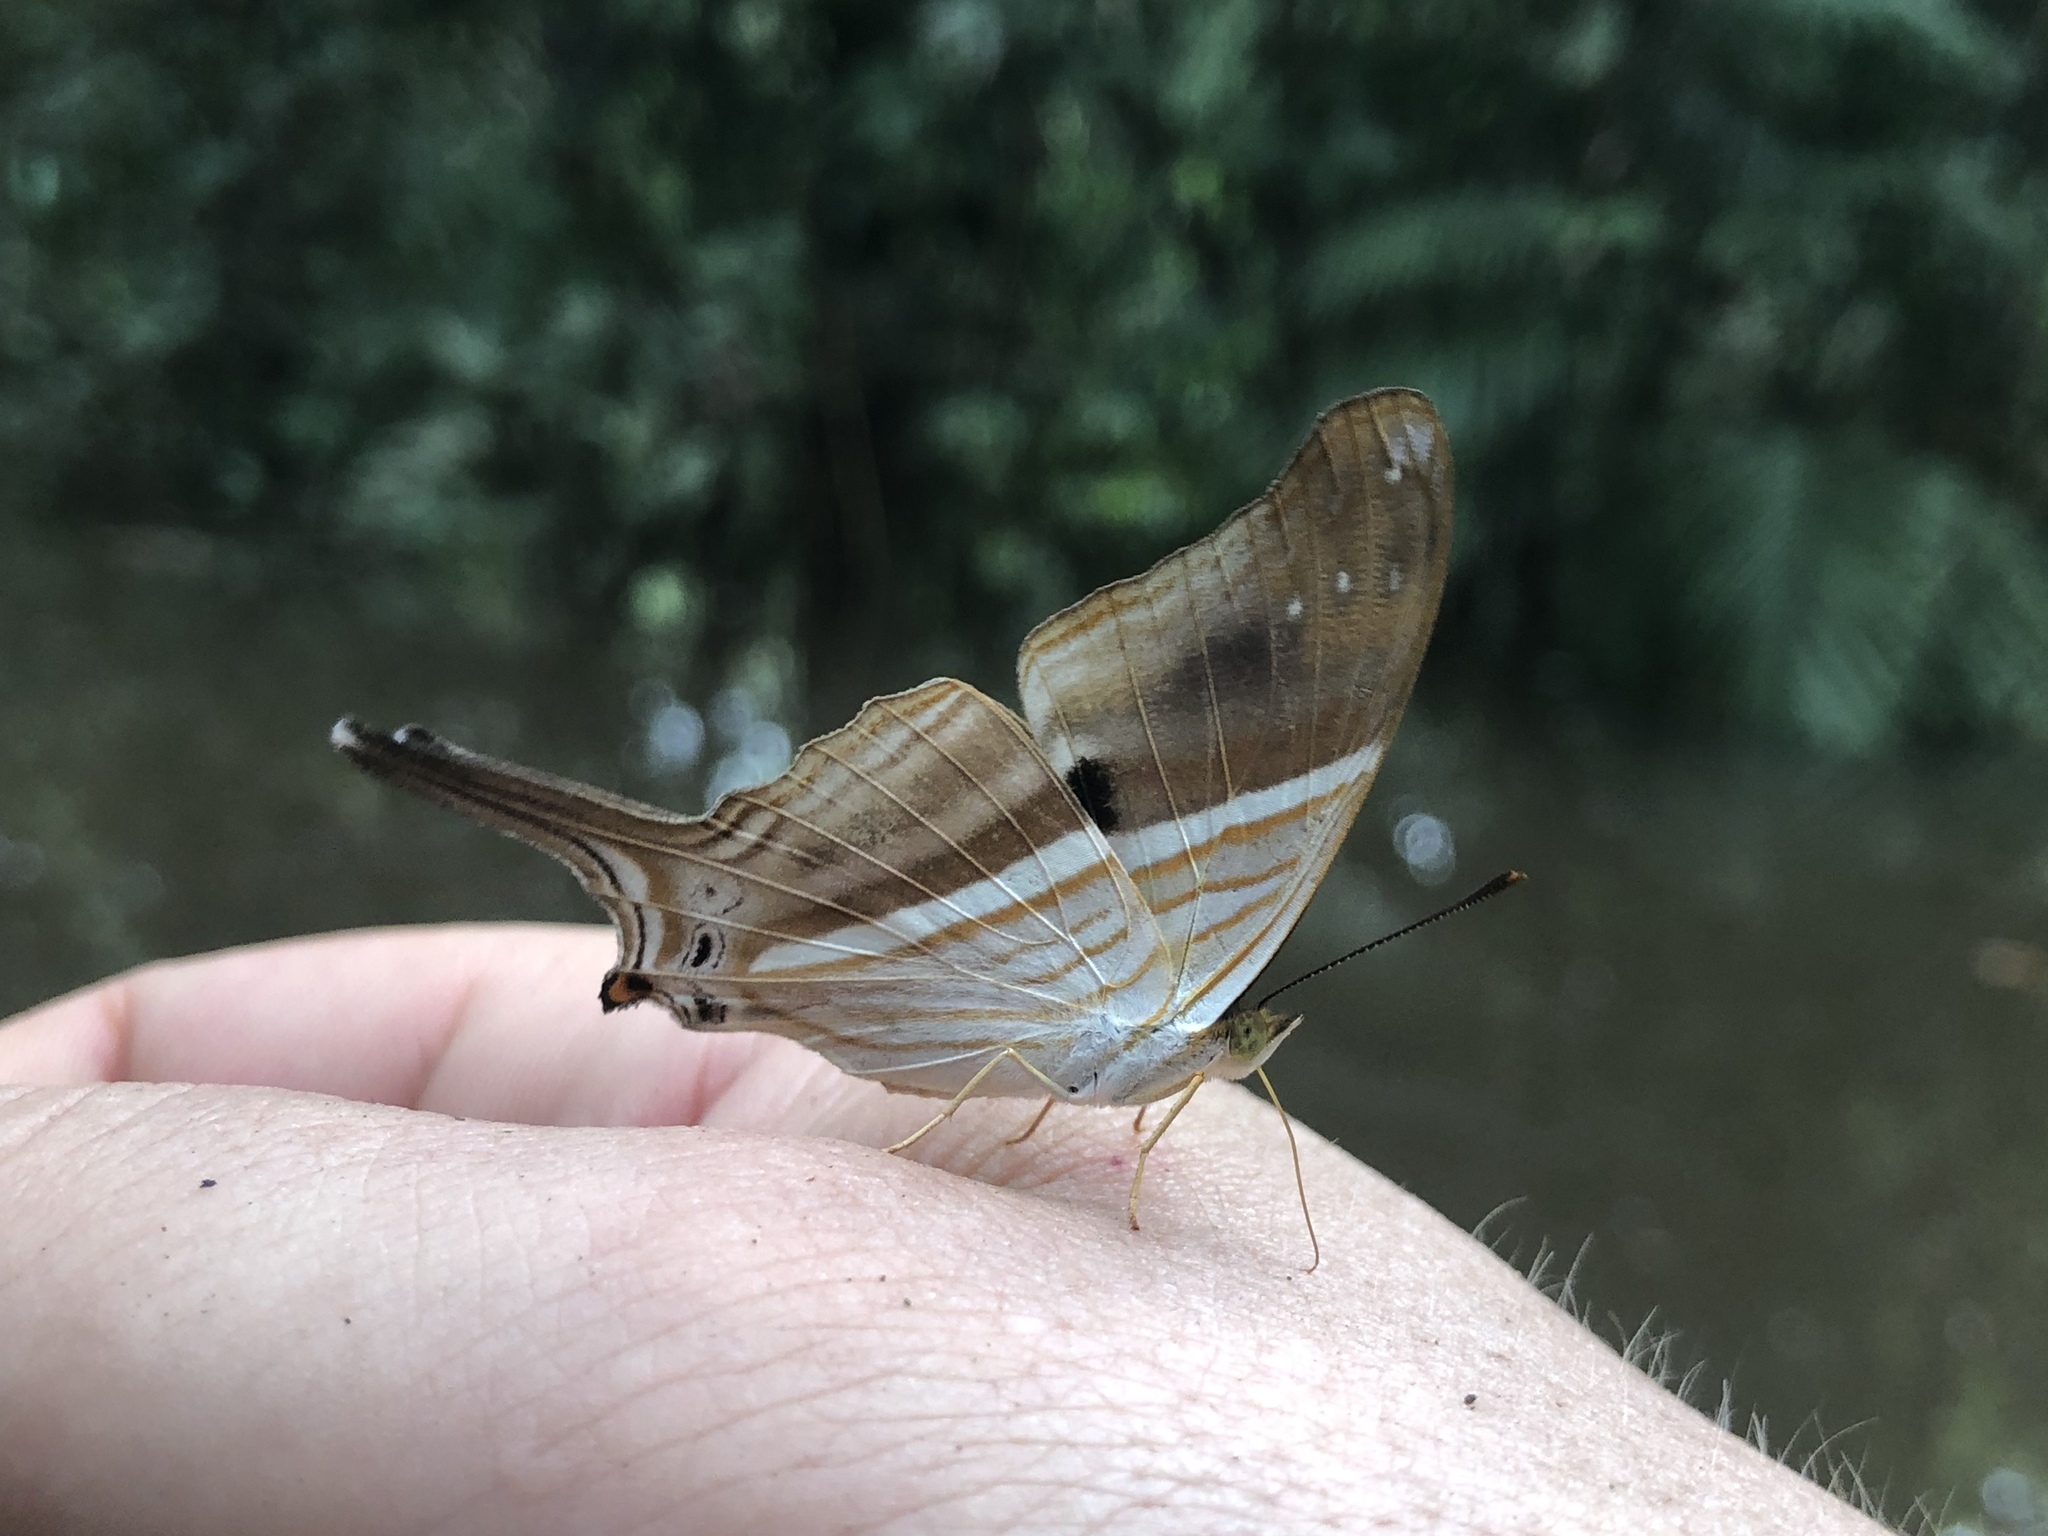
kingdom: Animalia
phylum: Arthropoda
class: Insecta
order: Lepidoptera
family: Nymphalidae
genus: Marpesia
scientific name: Marpesia chiron
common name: Many-banded daggerwing
